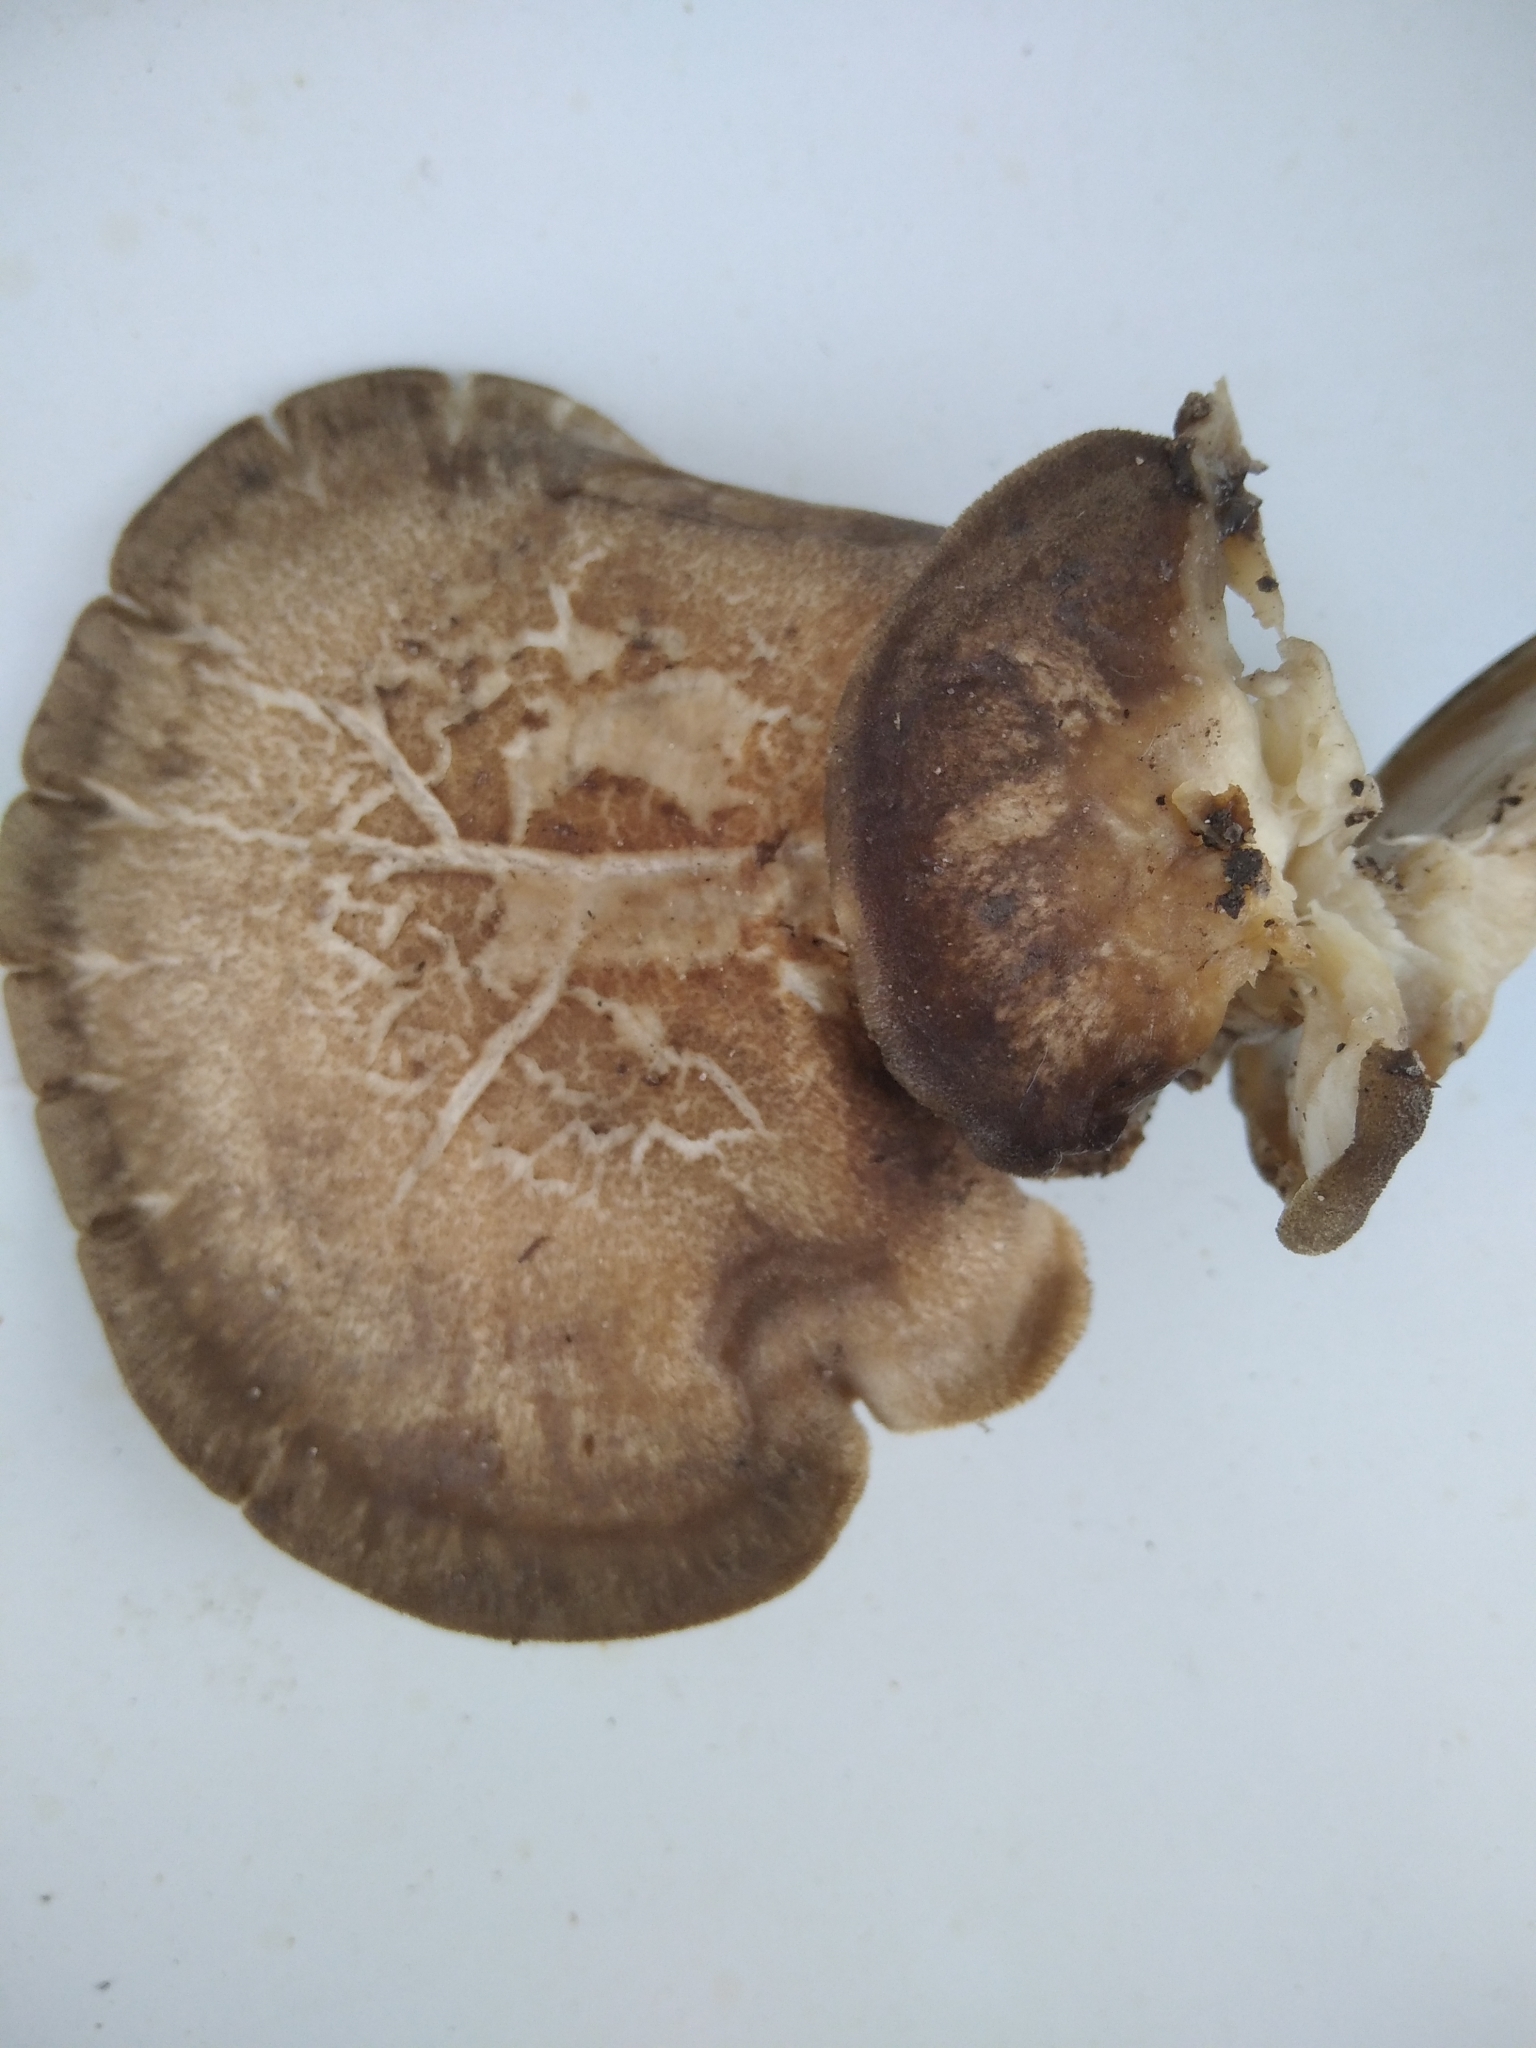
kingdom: Fungi
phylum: Basidiomycota
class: Agaricomycetes
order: Polyporales
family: Polyporaceae
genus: Lentinus
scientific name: Lentinus substrictus
